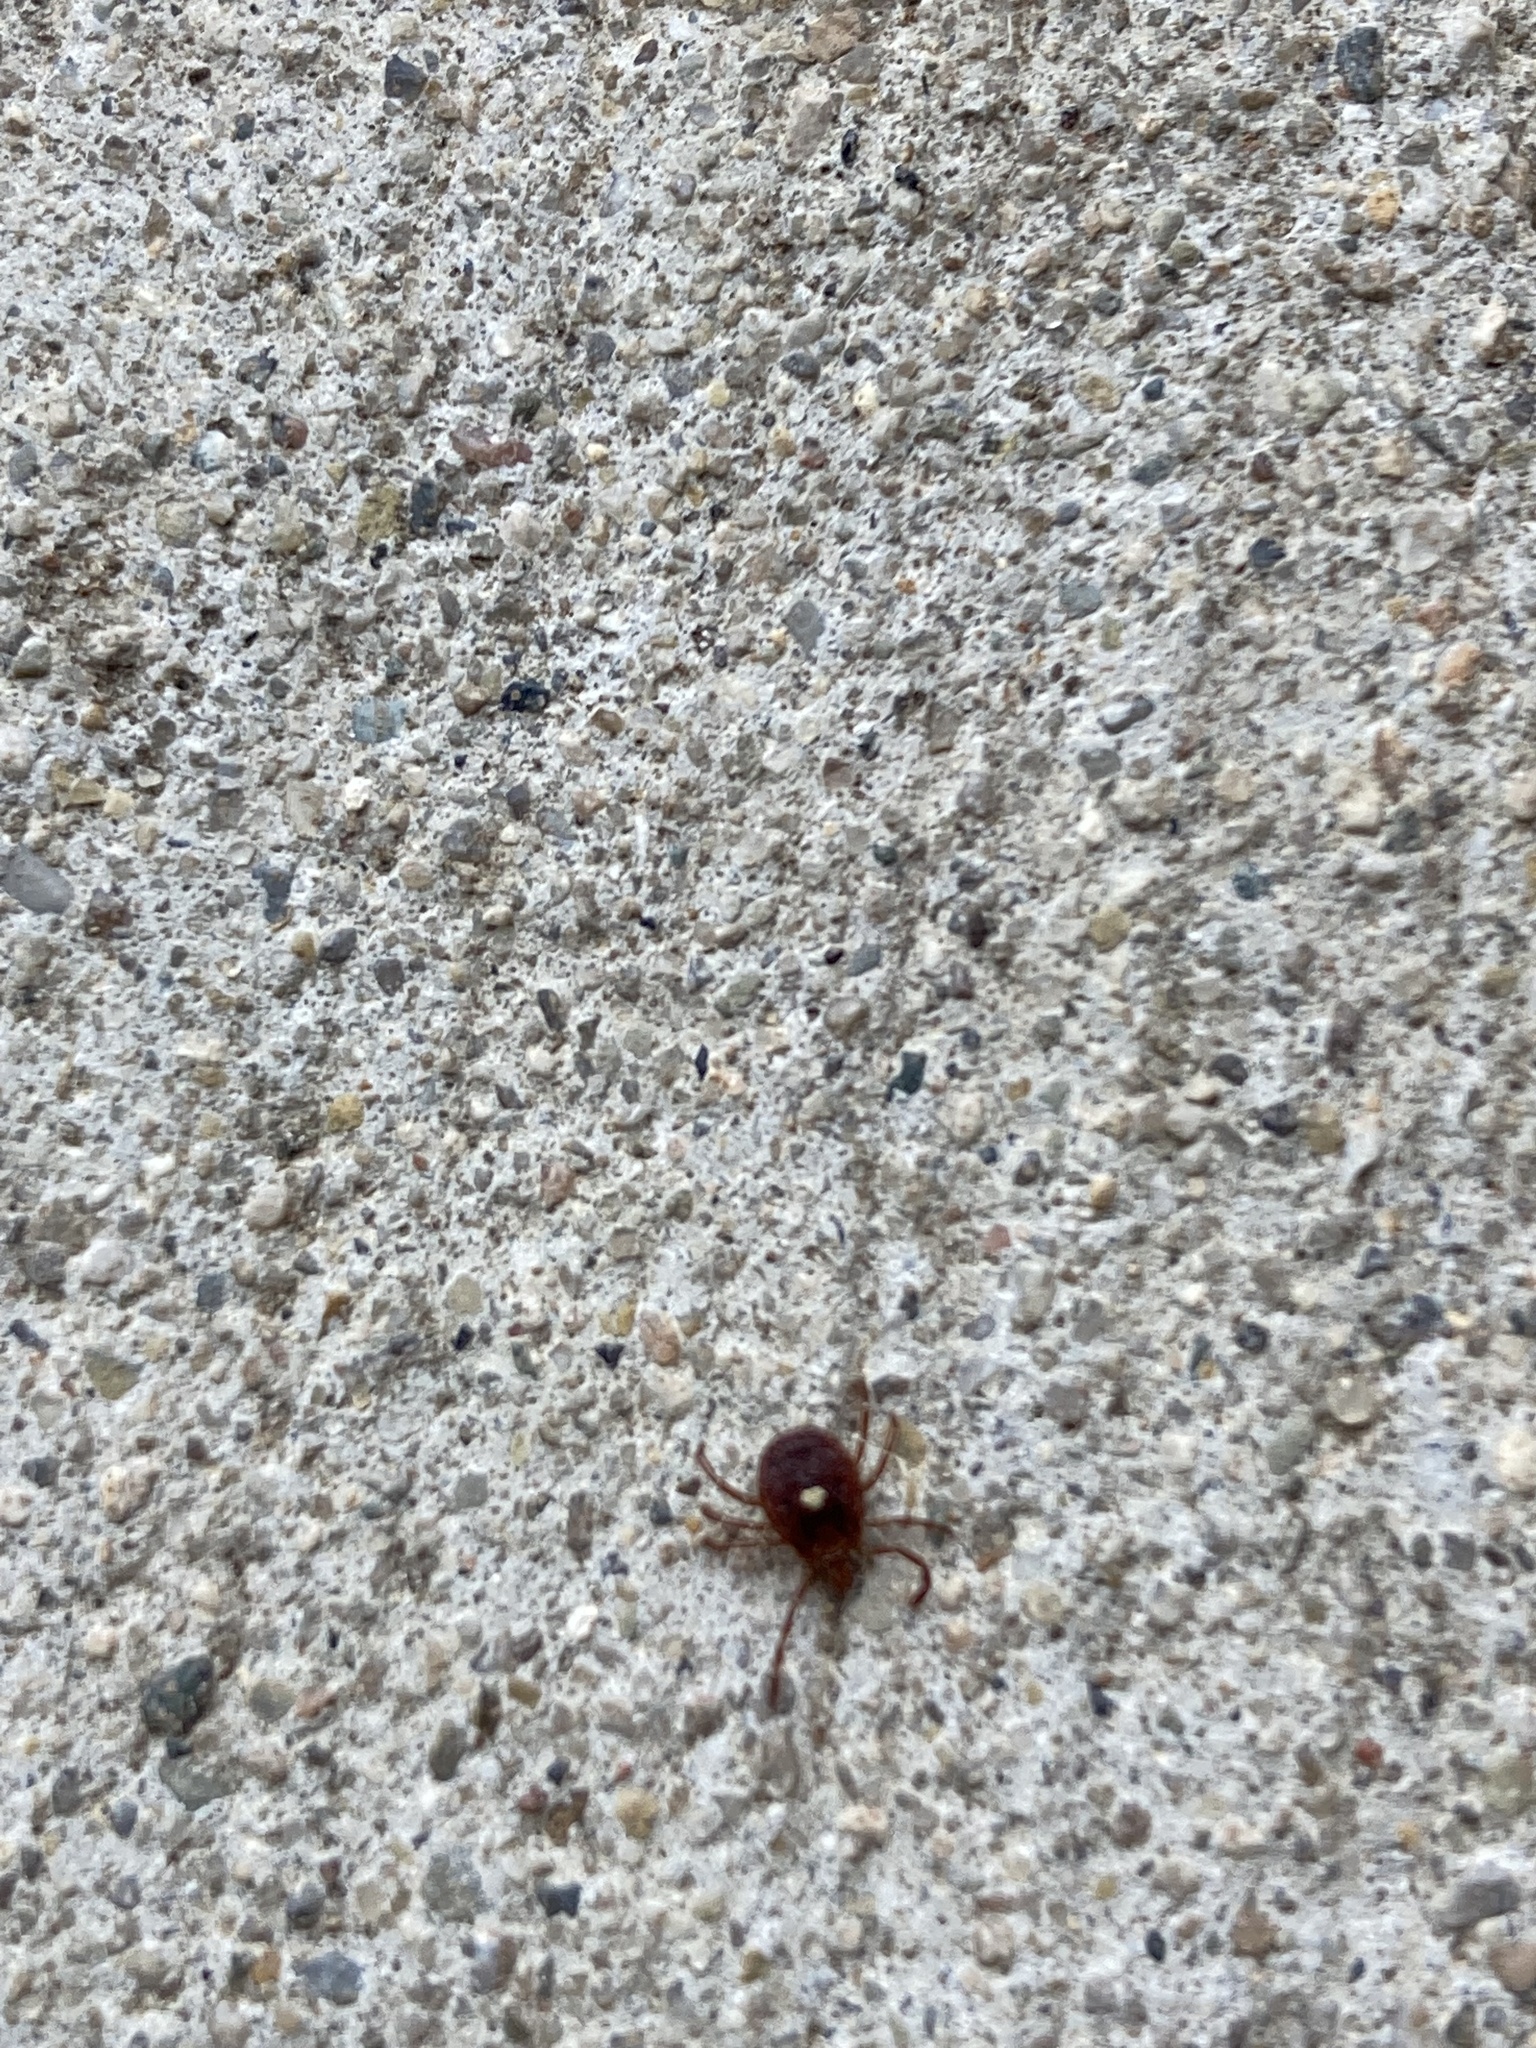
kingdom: Animalia
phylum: Arthropoda
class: Arachnida
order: Ixodida
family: Ixodidae
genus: Amblyomma
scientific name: Amblyomma americanum
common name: Lone star tick
